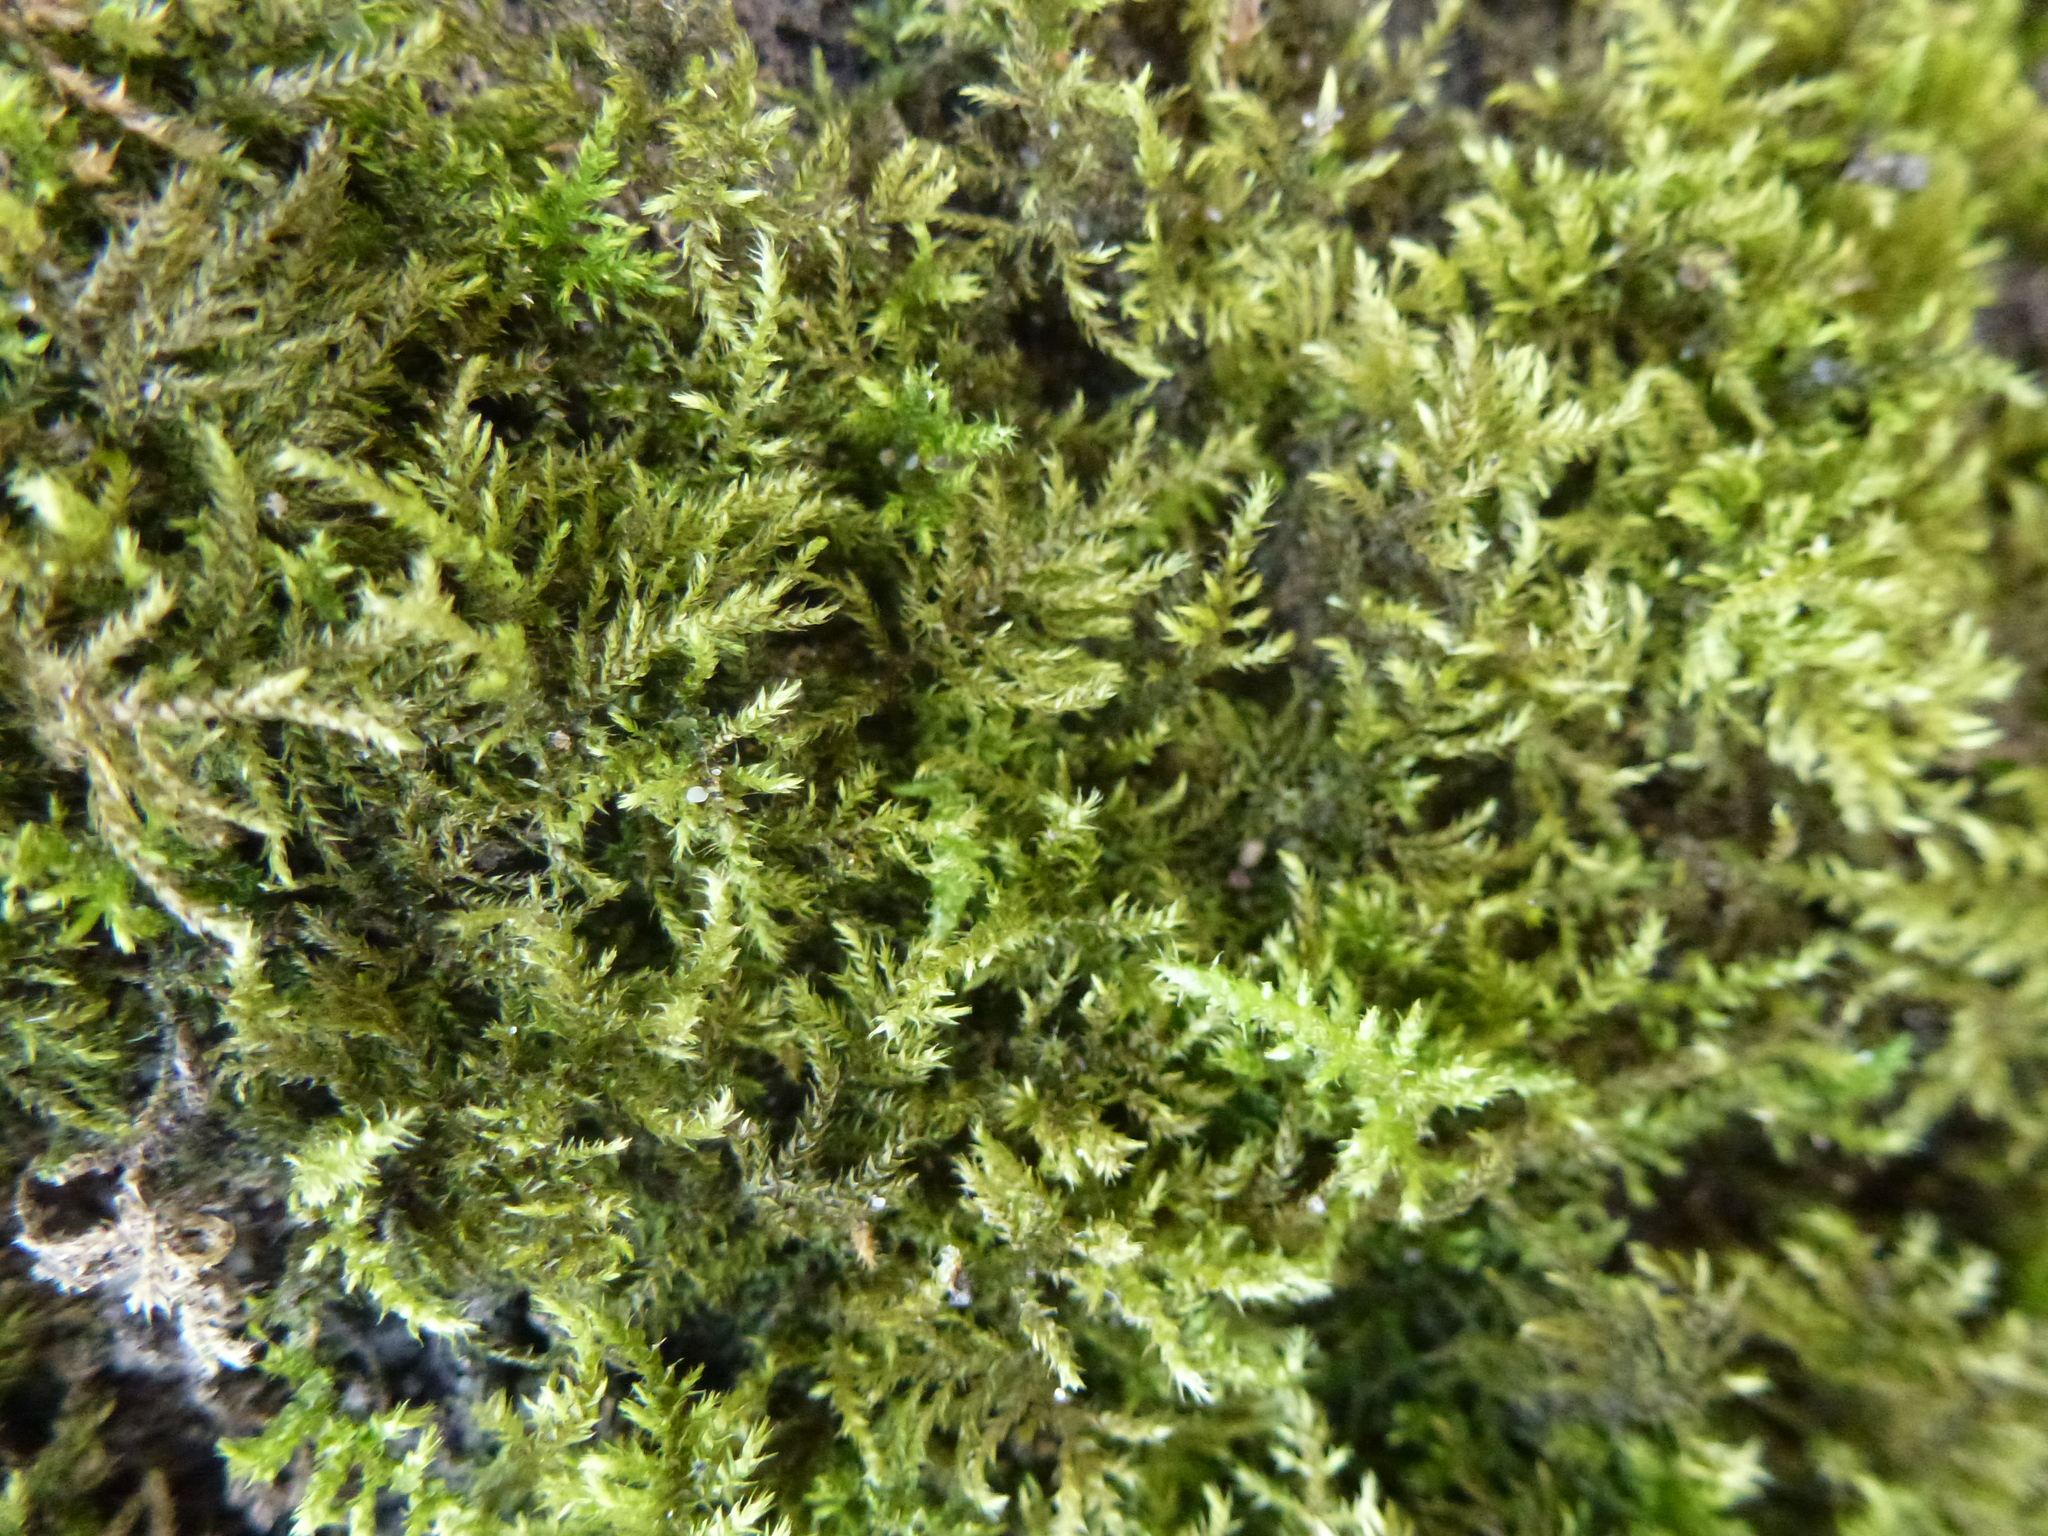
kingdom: Plantae
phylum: Bryophyta
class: Bryopsida
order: Hypnales
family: Brachytheciaceae
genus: Kindbergia
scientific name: Kindbergia praelonga
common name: Slender beaked moss
